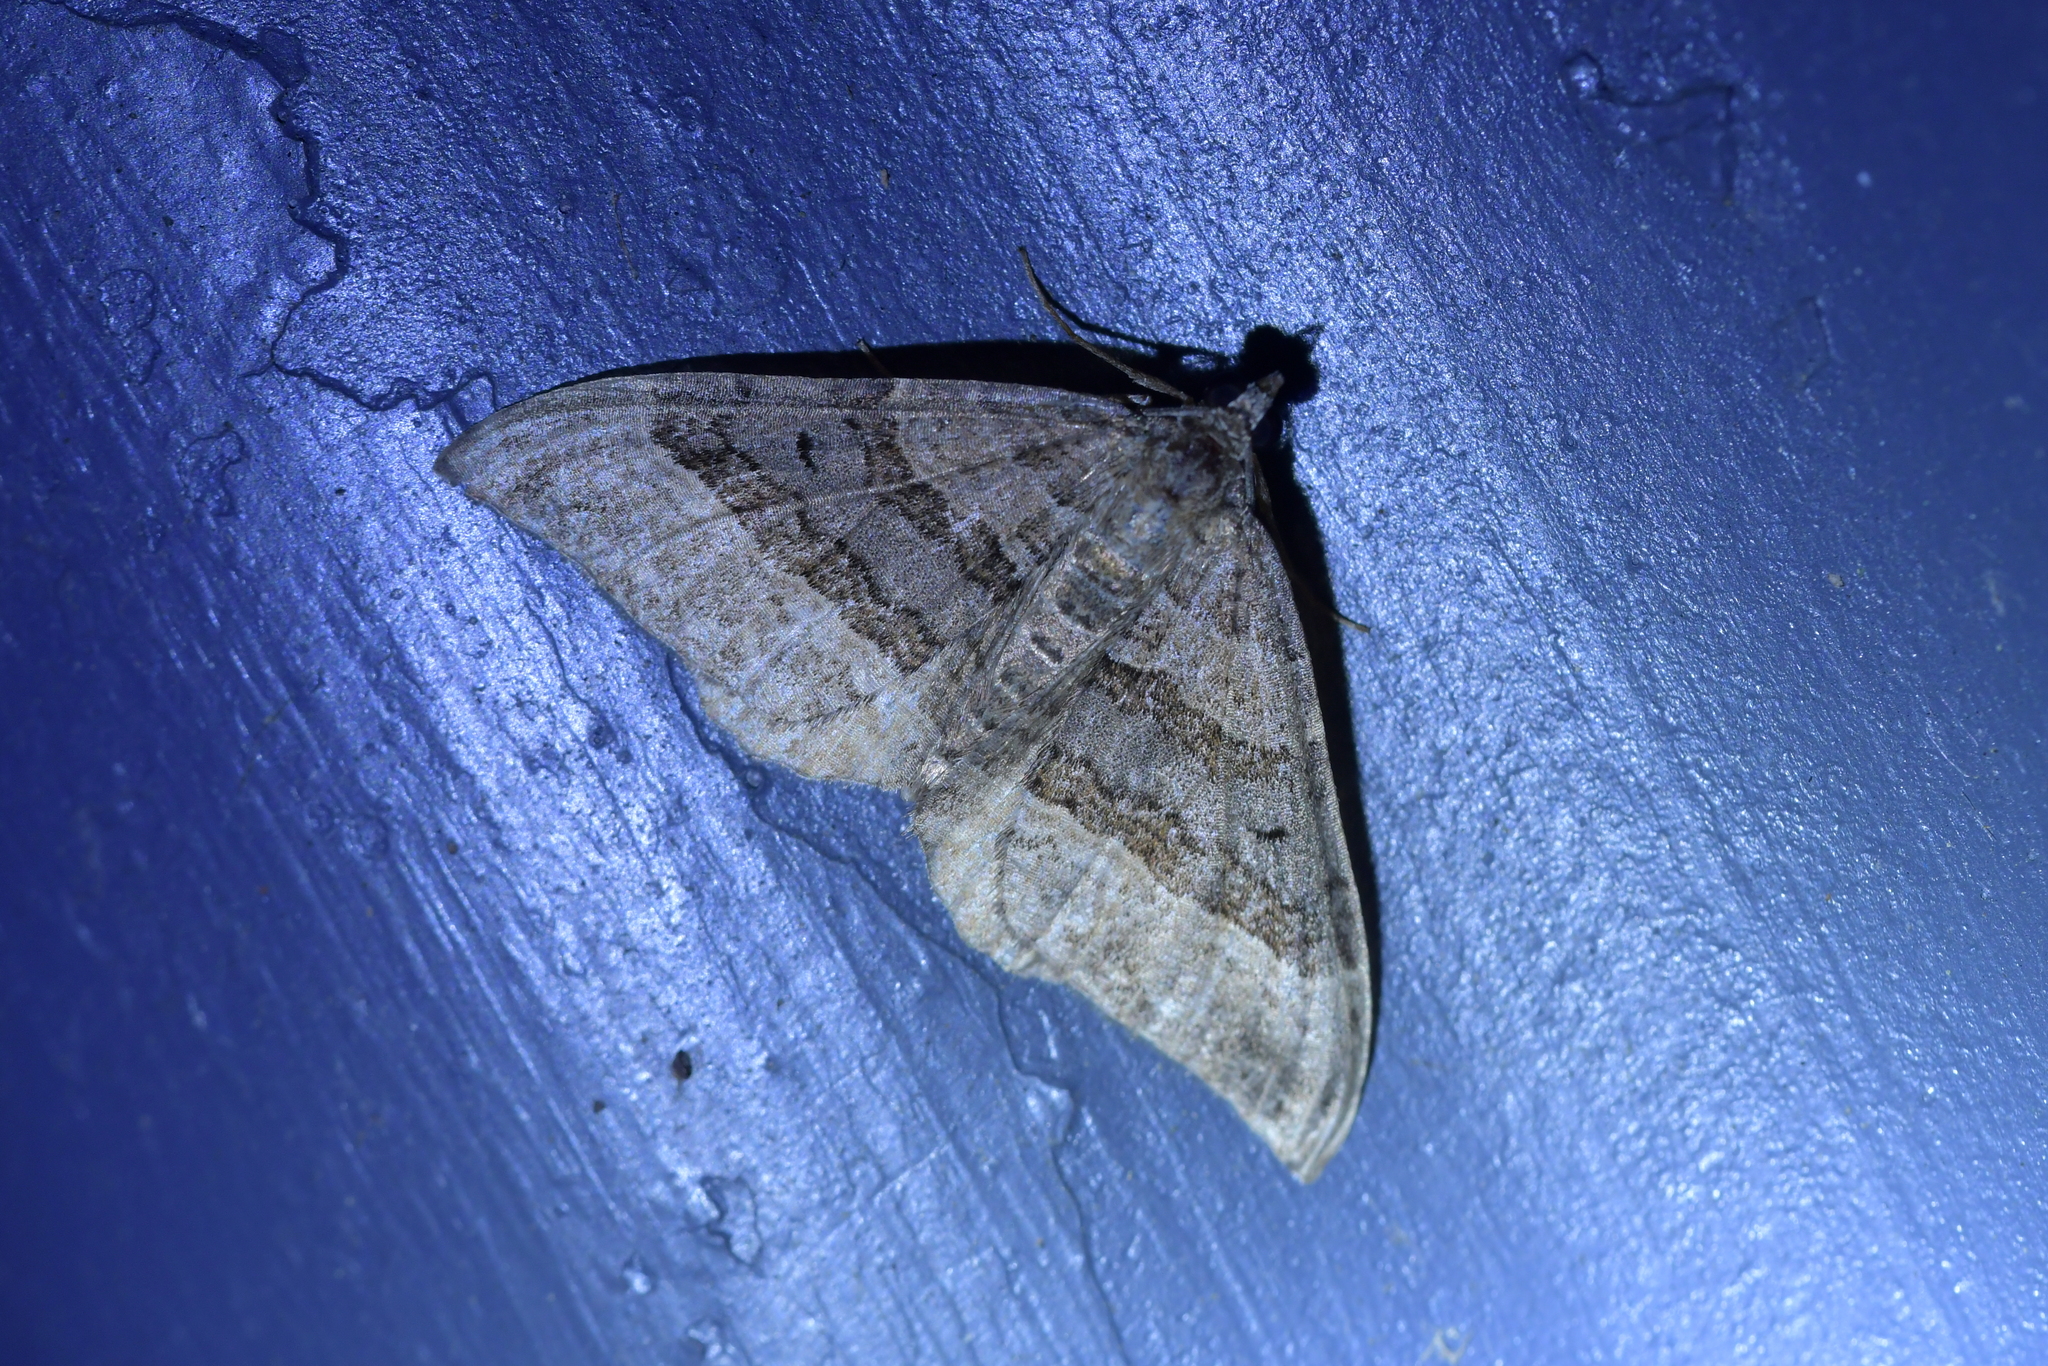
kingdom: Animalia
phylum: Arthropoda
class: Insecta
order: Lepidoptera
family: Geometridae
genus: Hydriomena
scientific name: Hydriomena deltoidata
